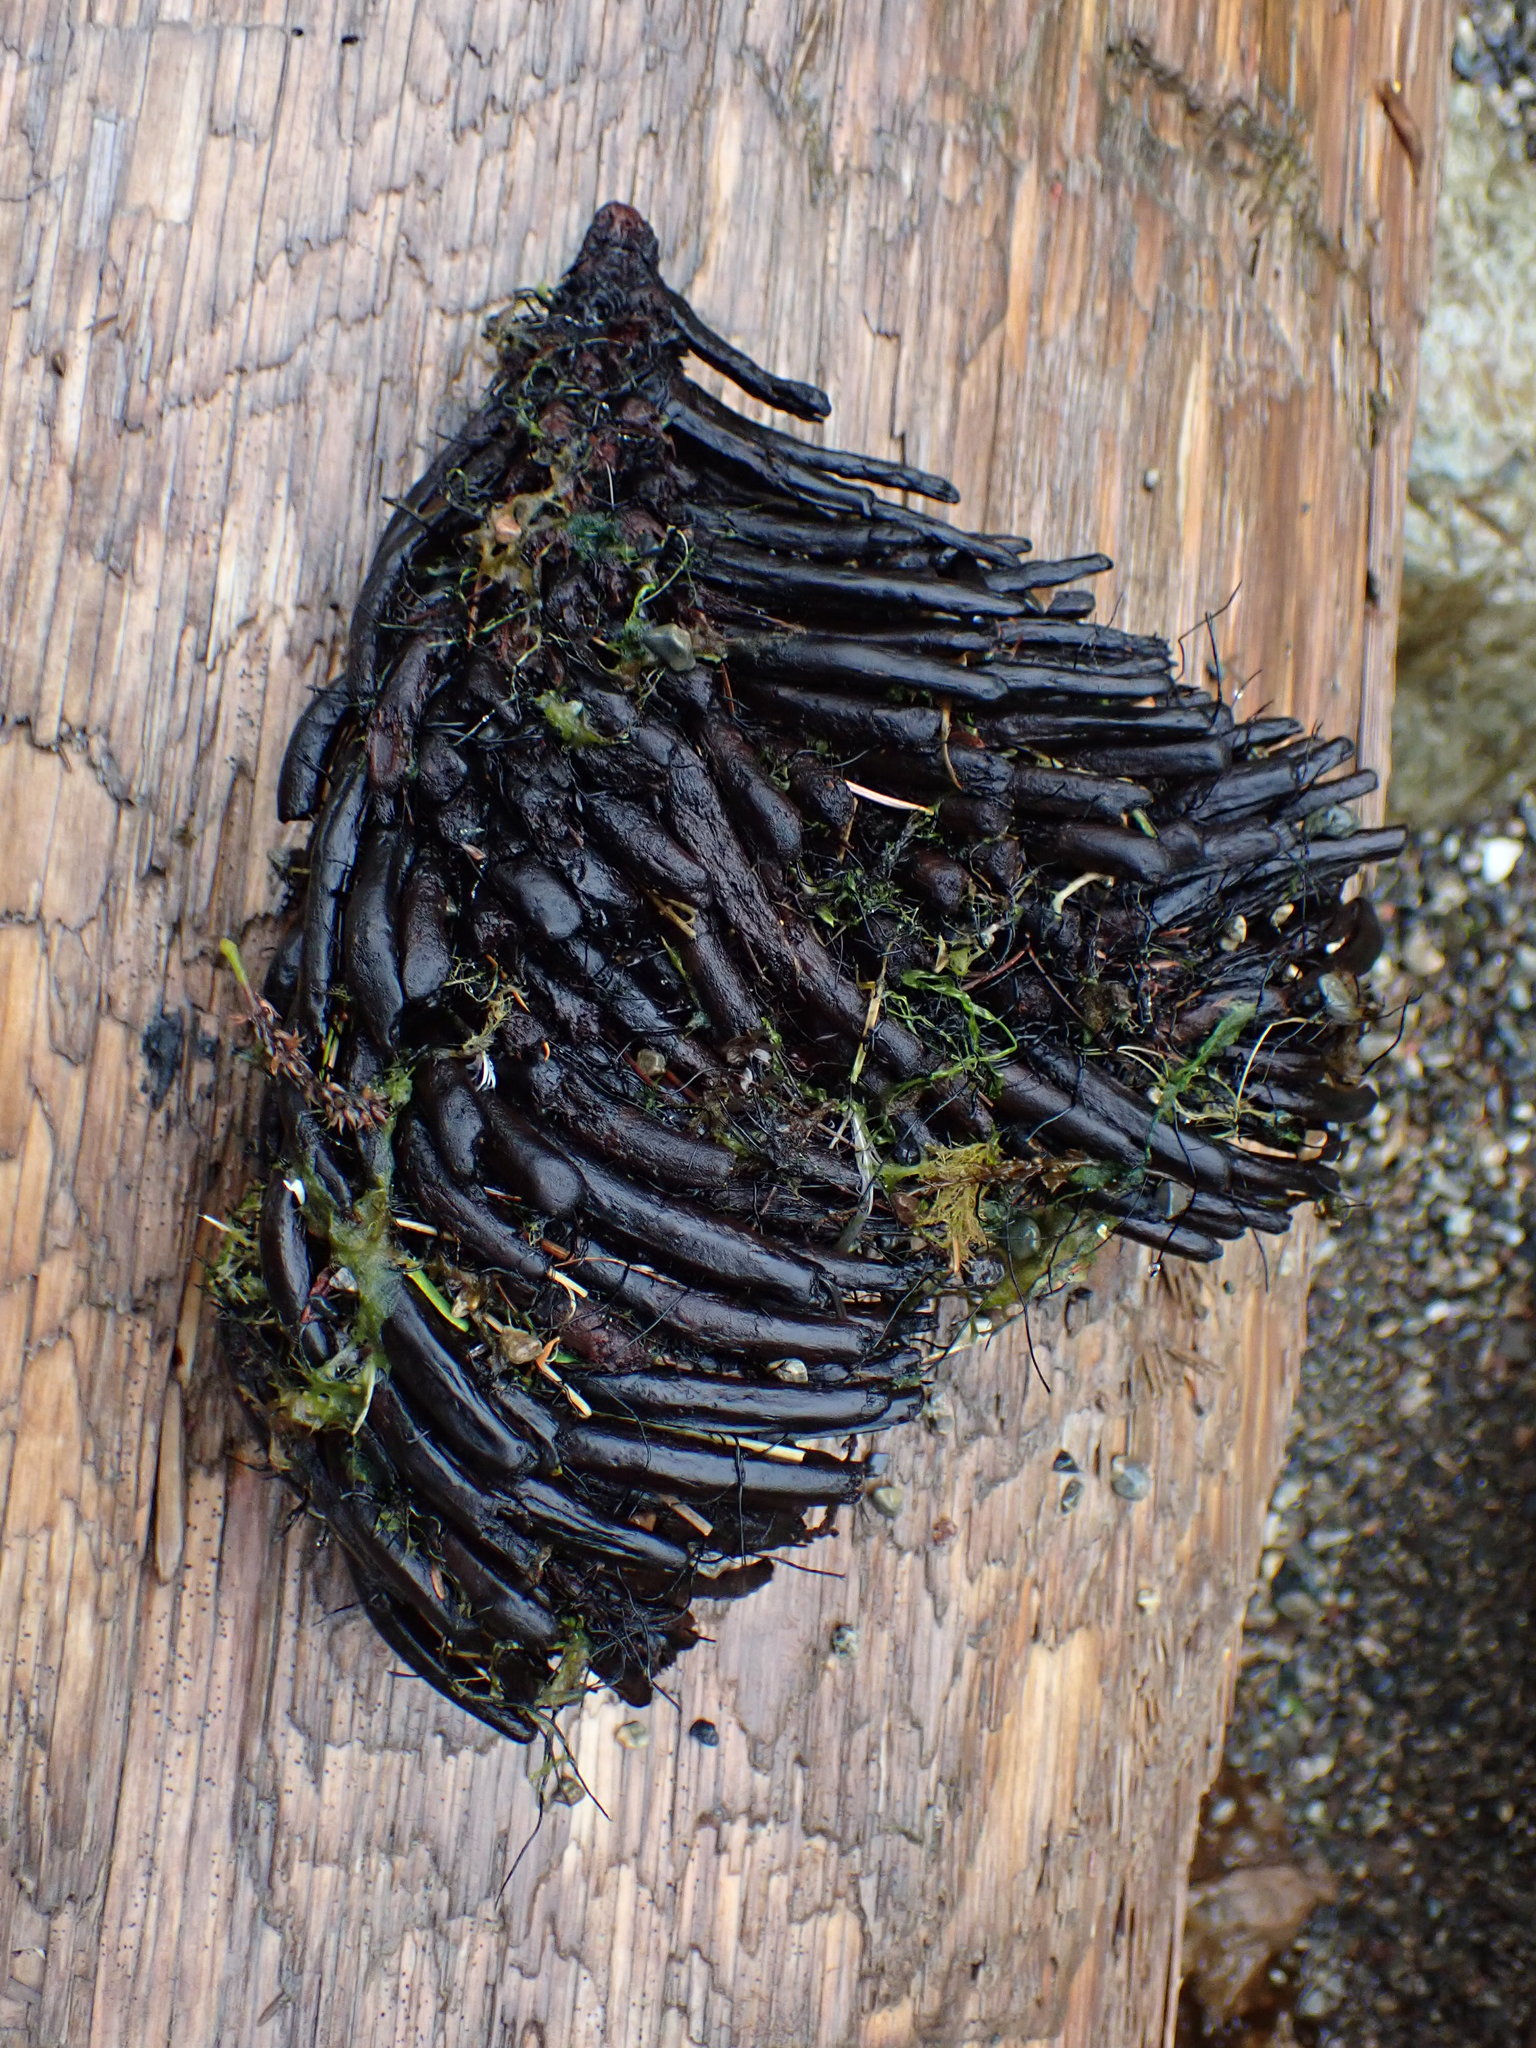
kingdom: Plantae
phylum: Tracheophyta
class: Polypodiopsida
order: Polypodiales
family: Dryopteridaceae
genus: Polystichum
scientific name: Polystichum munitum
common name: Western sword-fern
